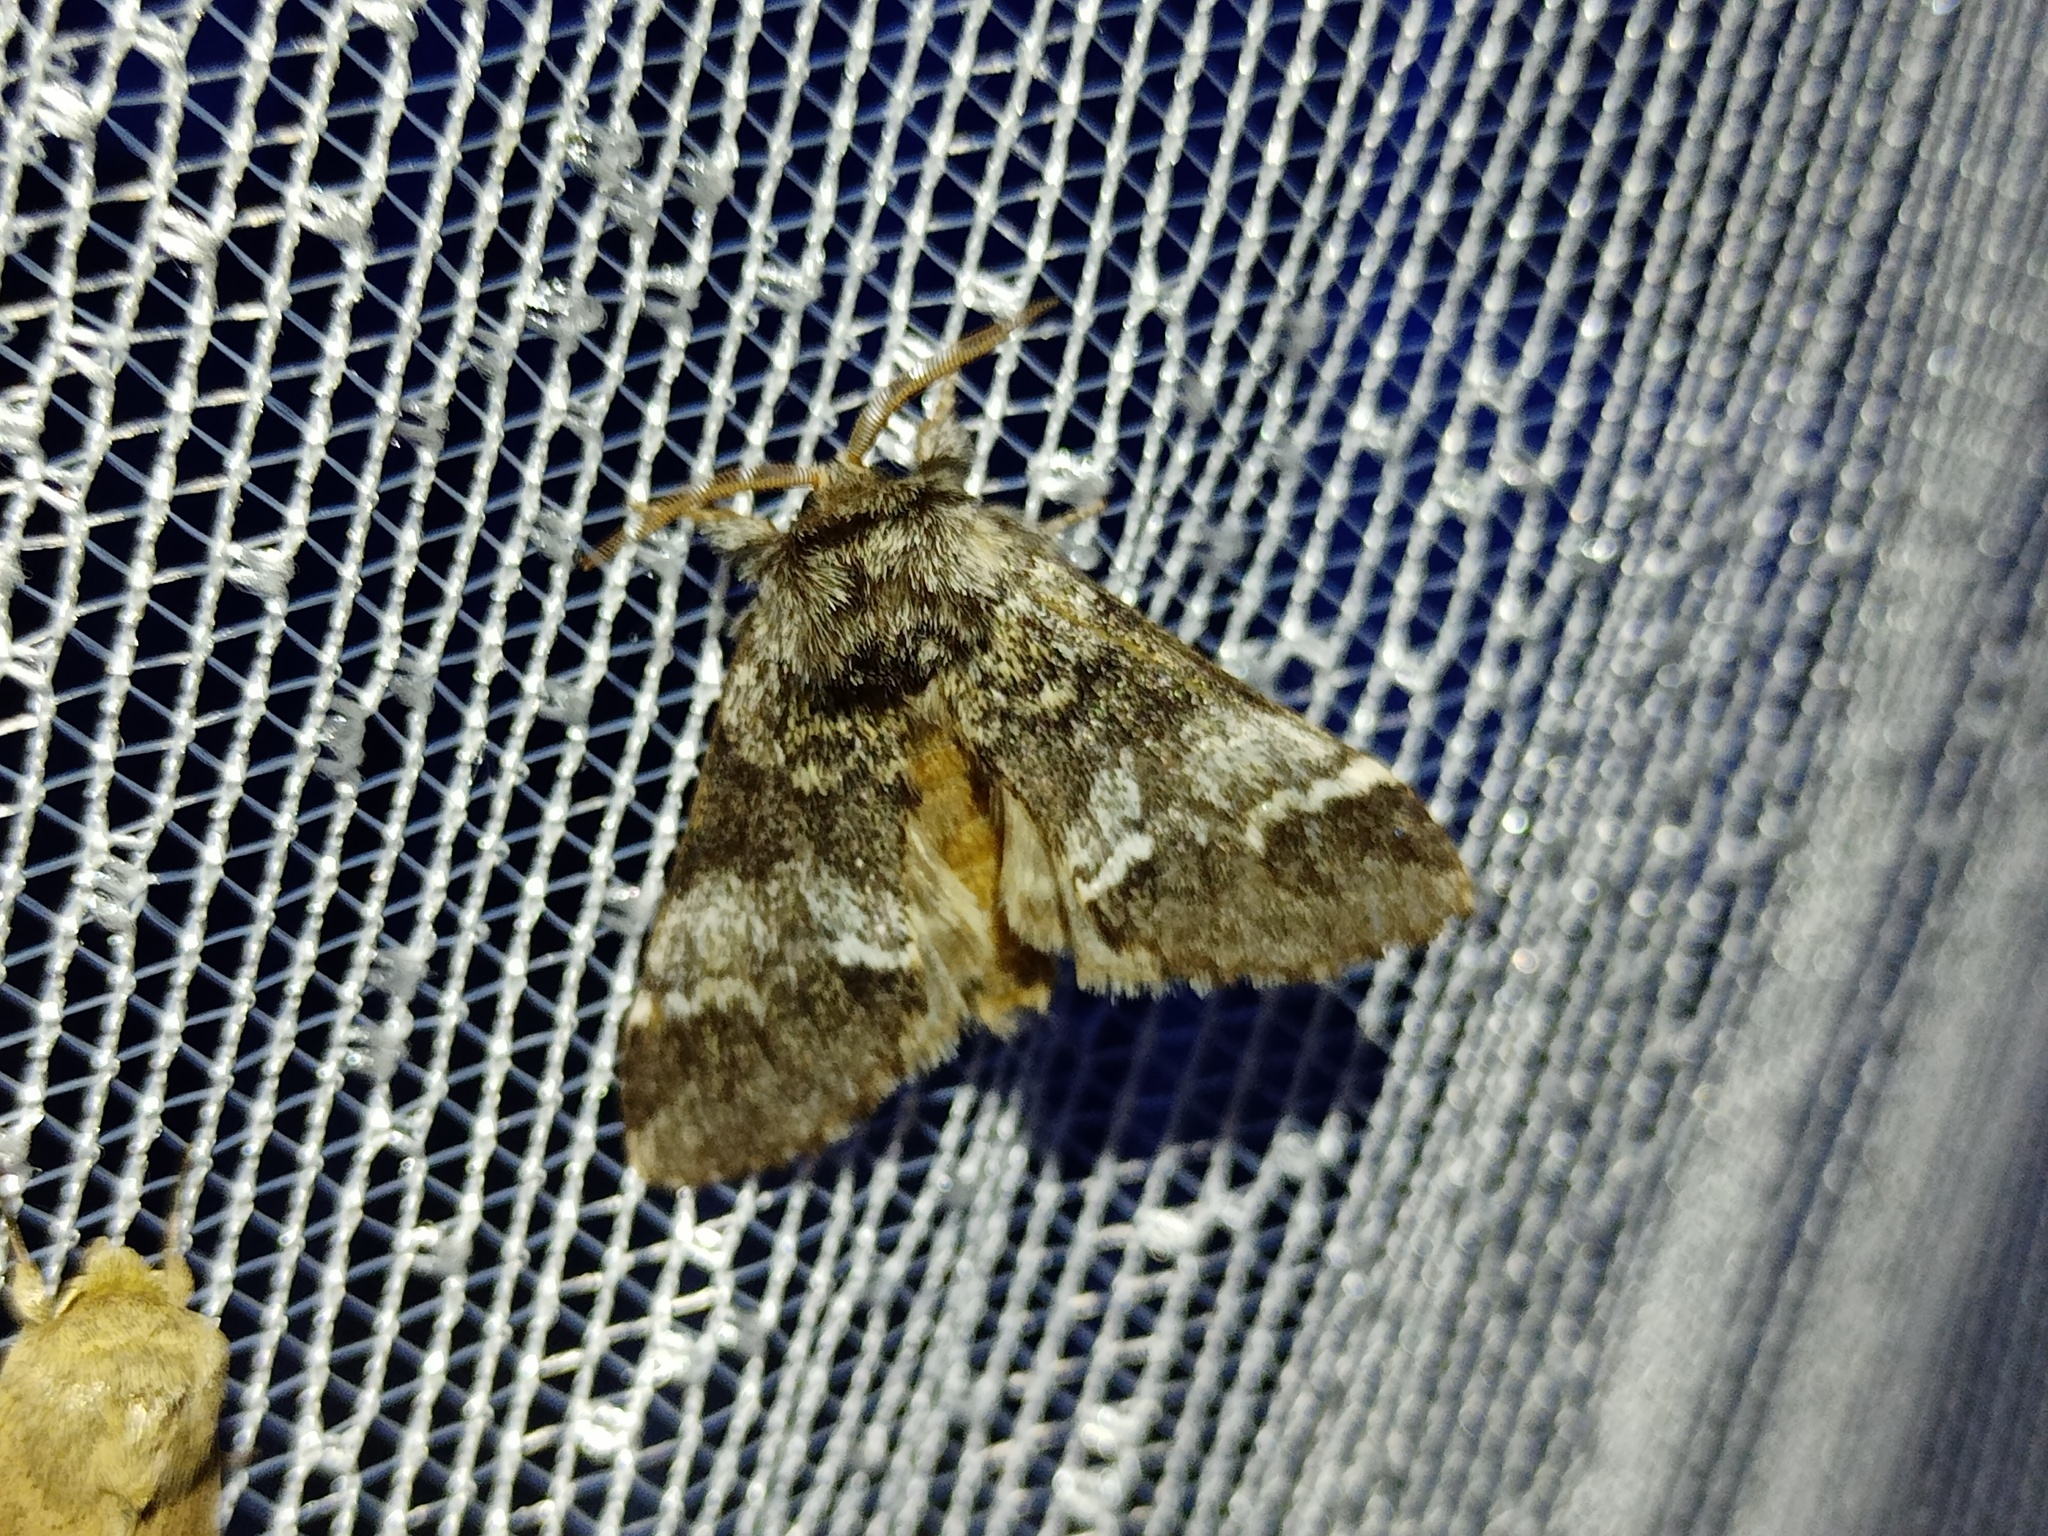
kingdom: Animalia
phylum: Arthropoda
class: Insecta
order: Lepidoptera
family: Notodontidae
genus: Drymonia
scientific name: Drymonia dodonaea
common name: Marbled brown
